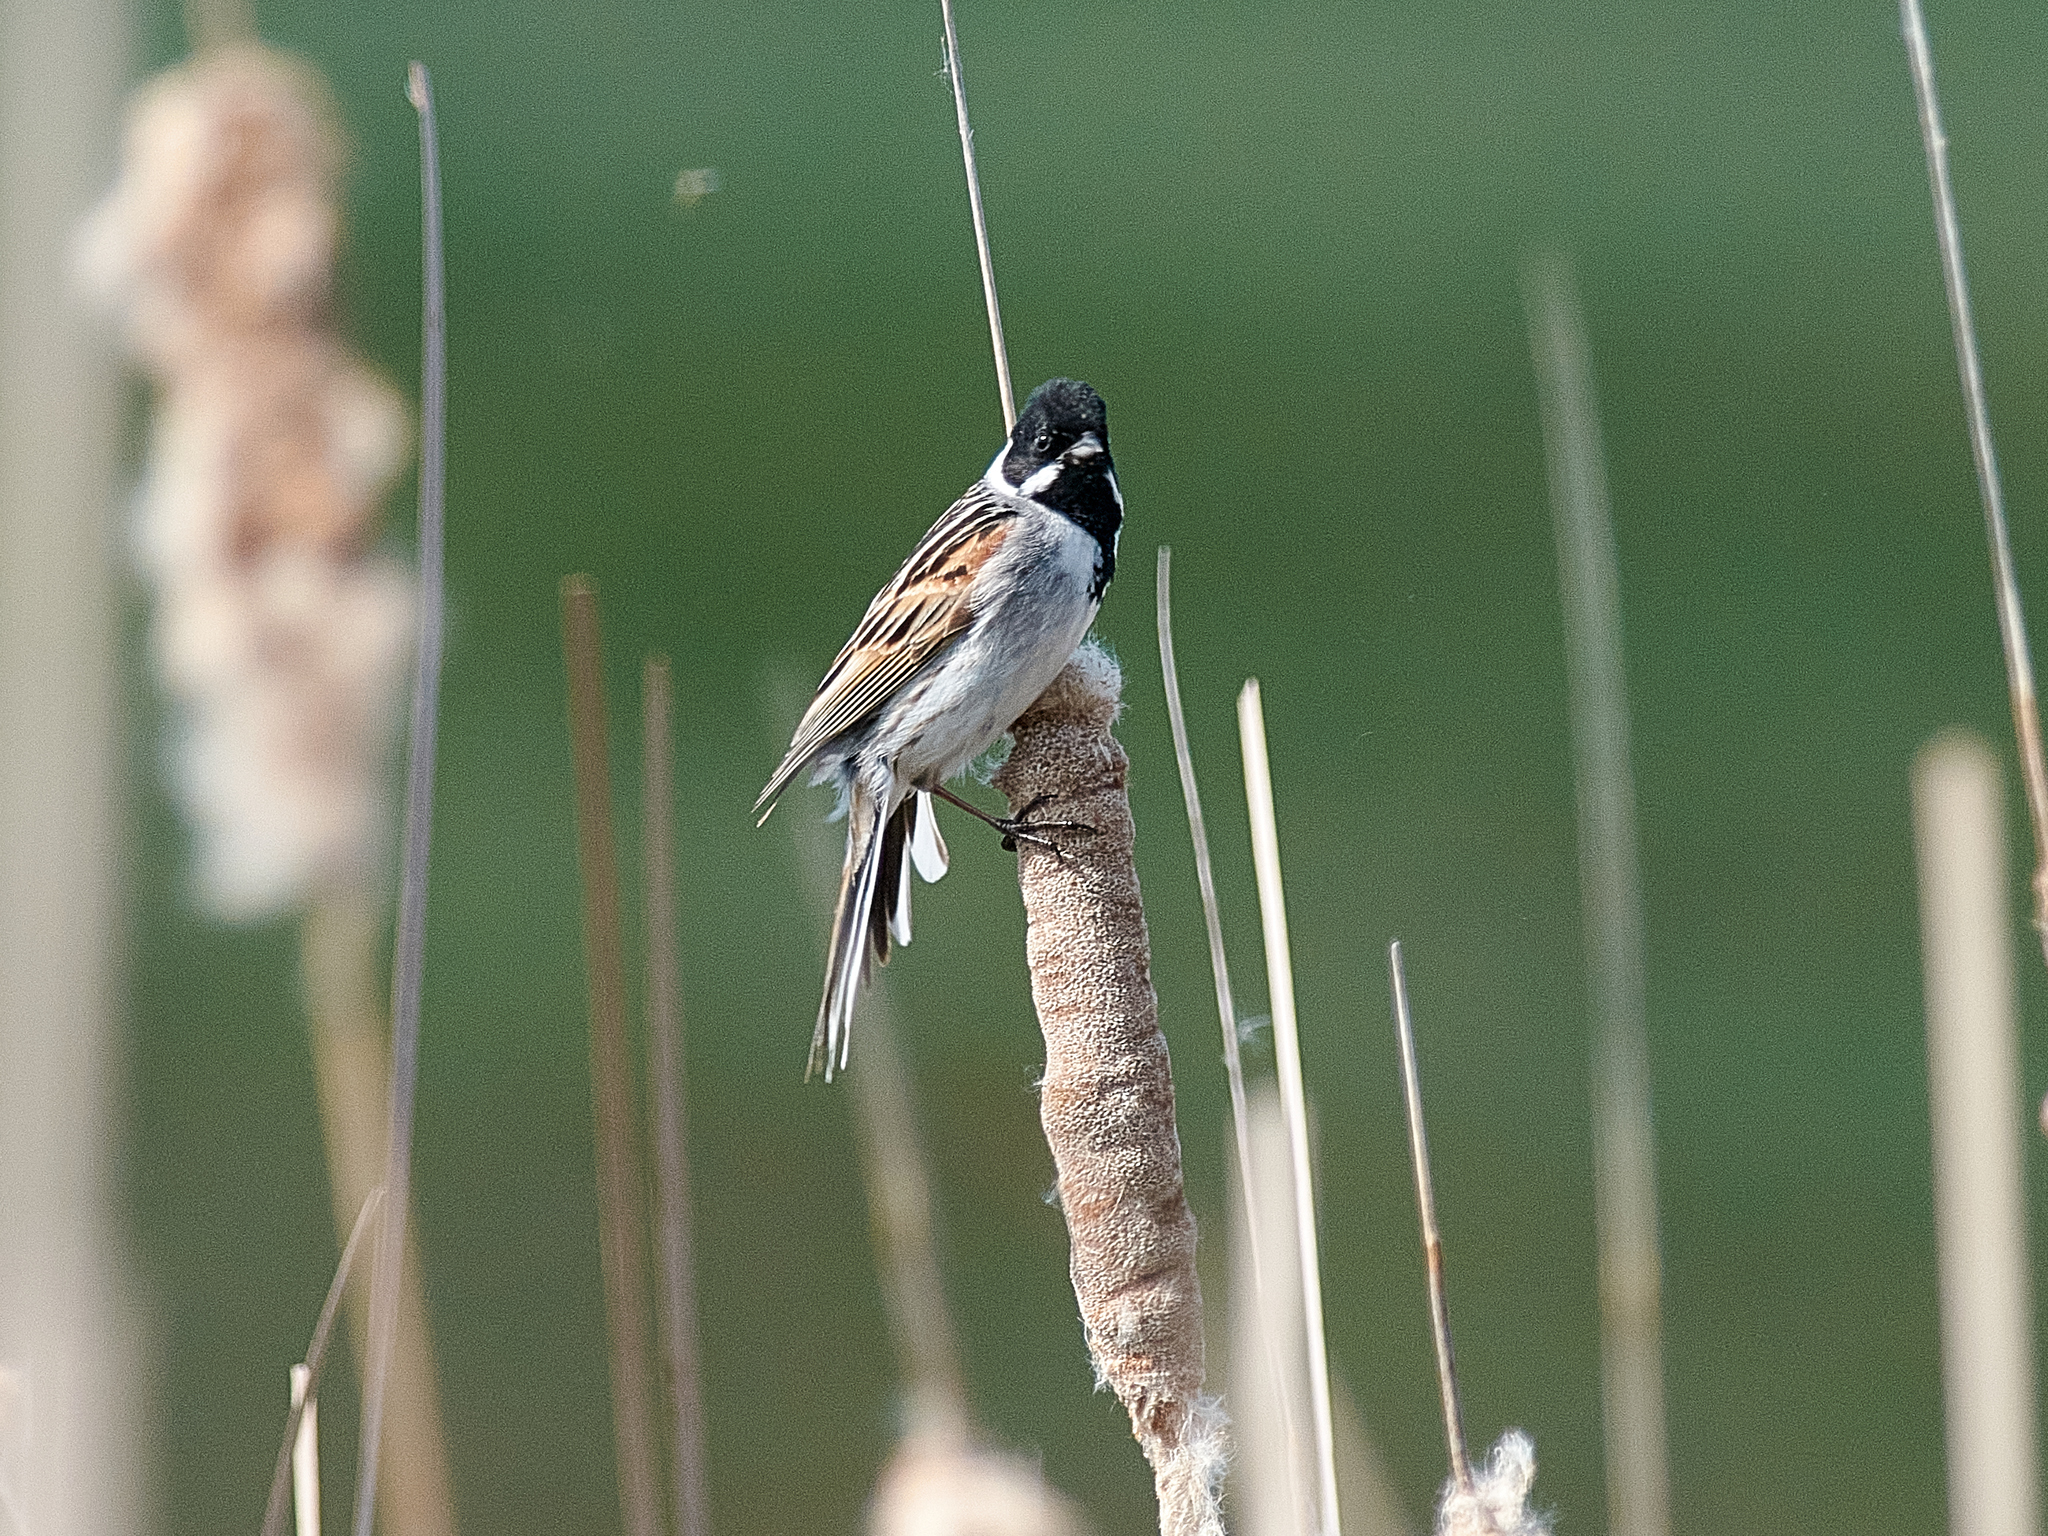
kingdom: Animalia
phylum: Chordata
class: Aves
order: Passeriformes
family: Emberizidae
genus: Emberiza
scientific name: Emberiza schoeniclus
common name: Reed bunting
